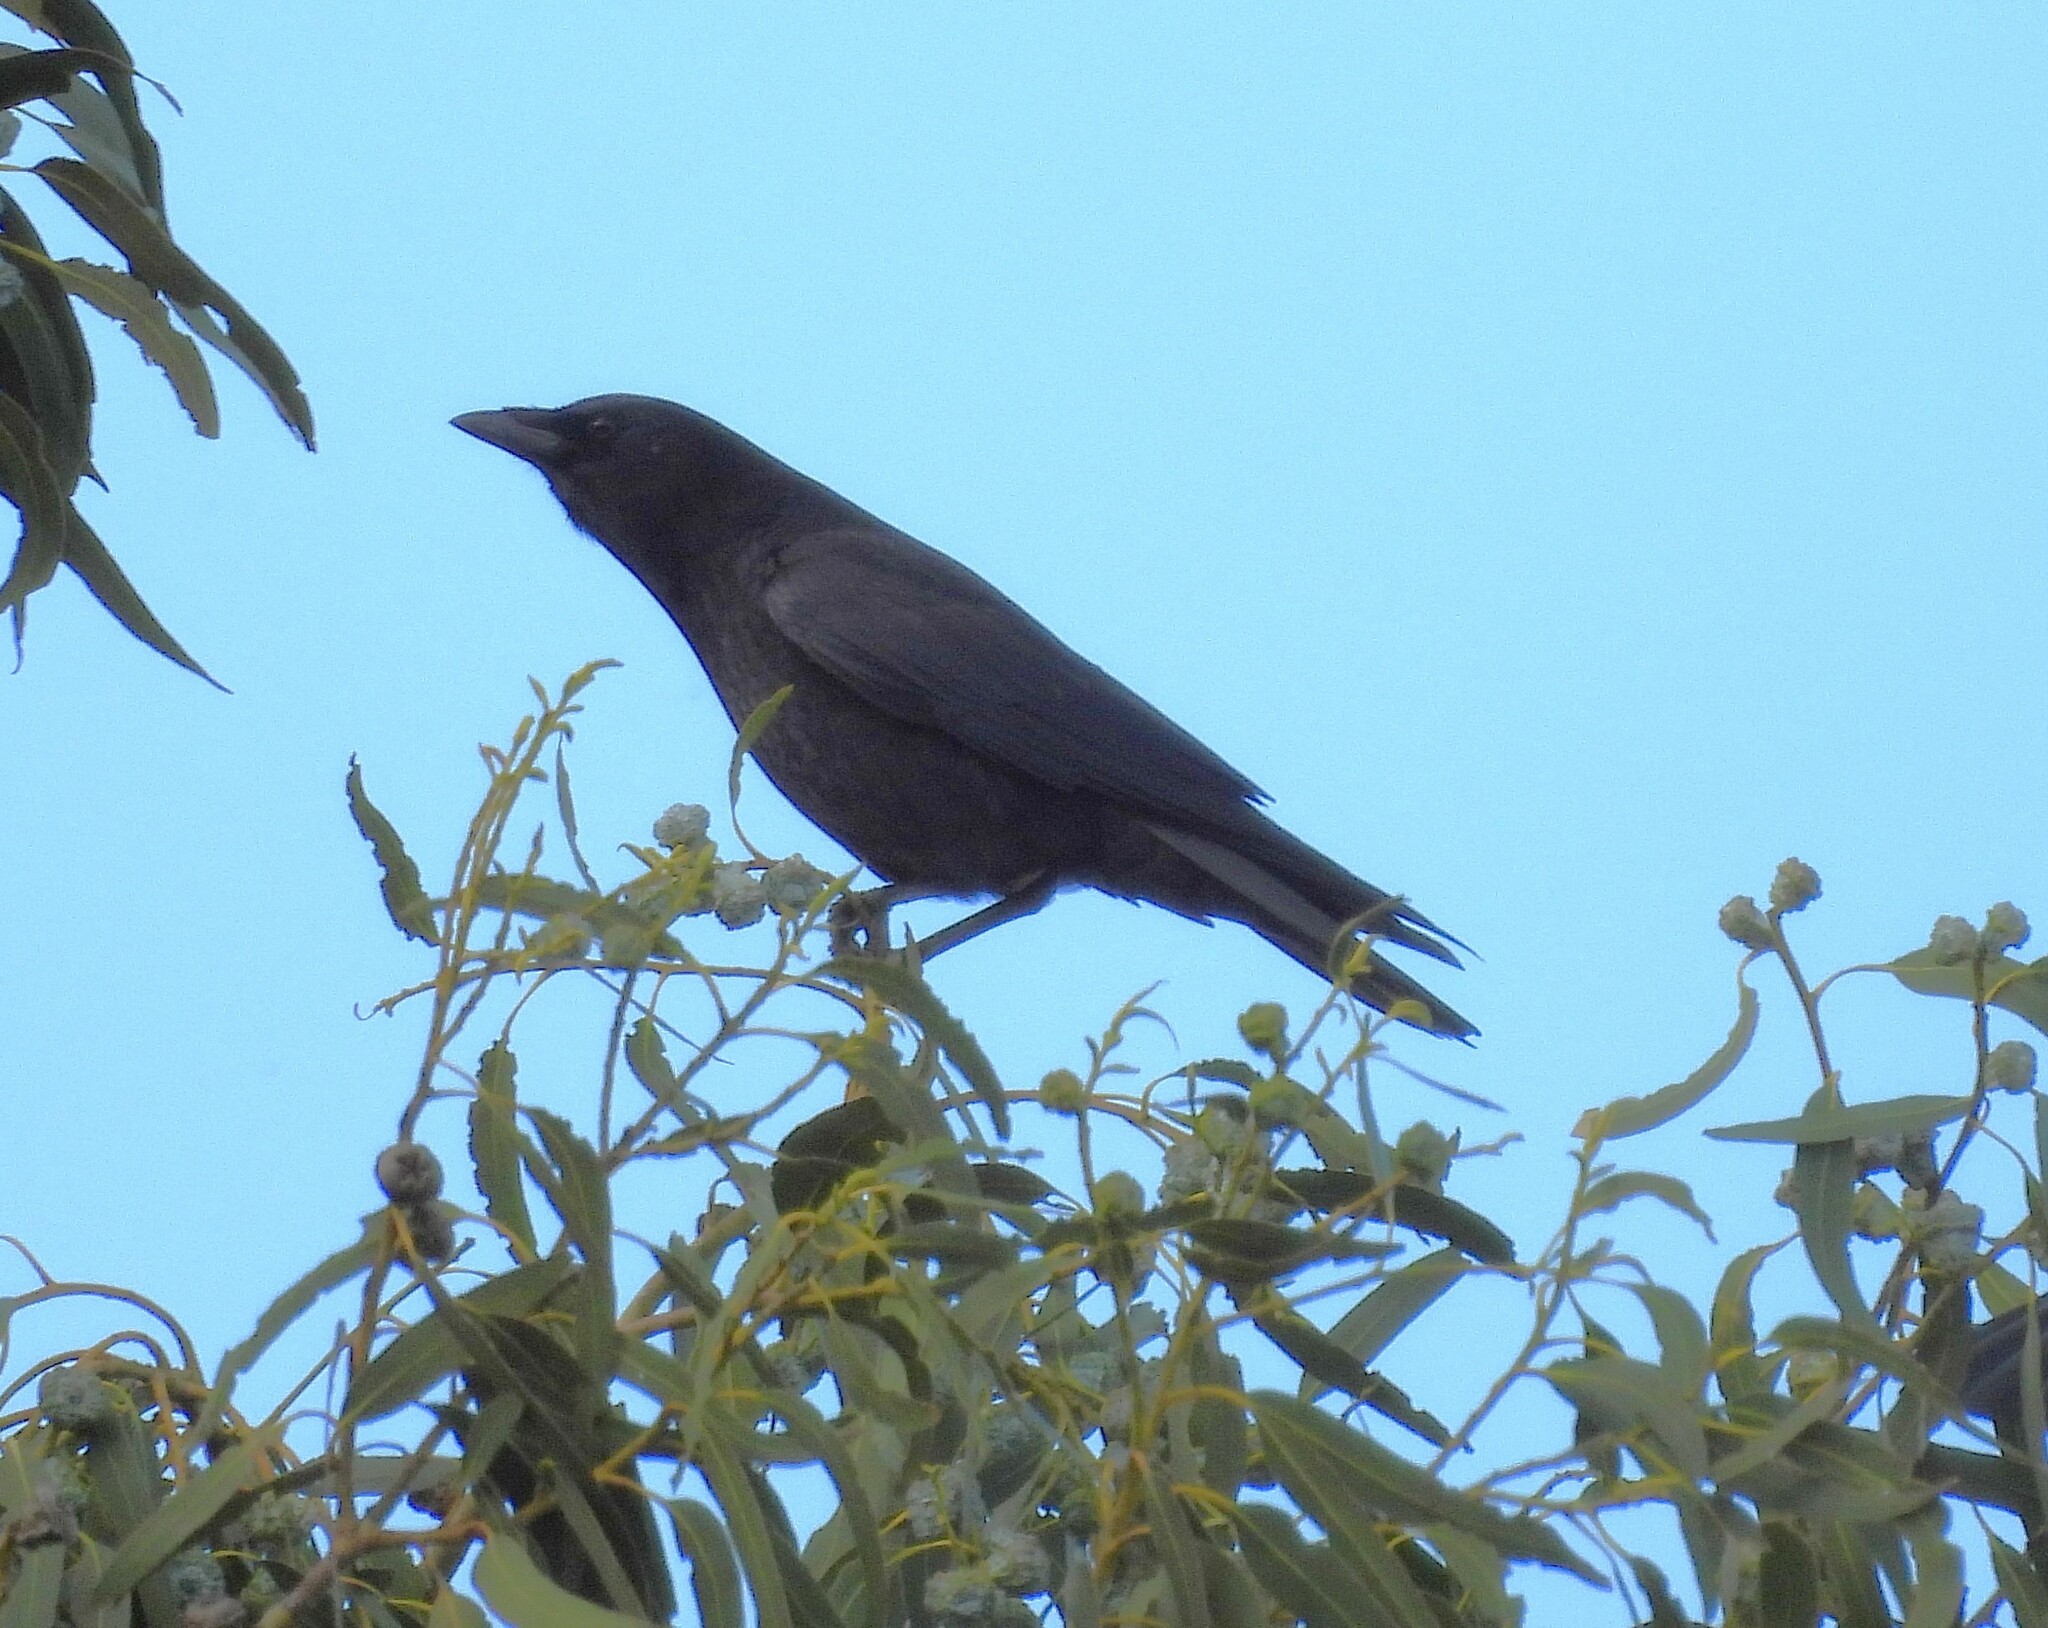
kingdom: Animalia
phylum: Chordata
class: Aves
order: Passeriformes
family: Corvidae
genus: Corvus
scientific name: Corvus brachyrhynchos
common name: American crow
